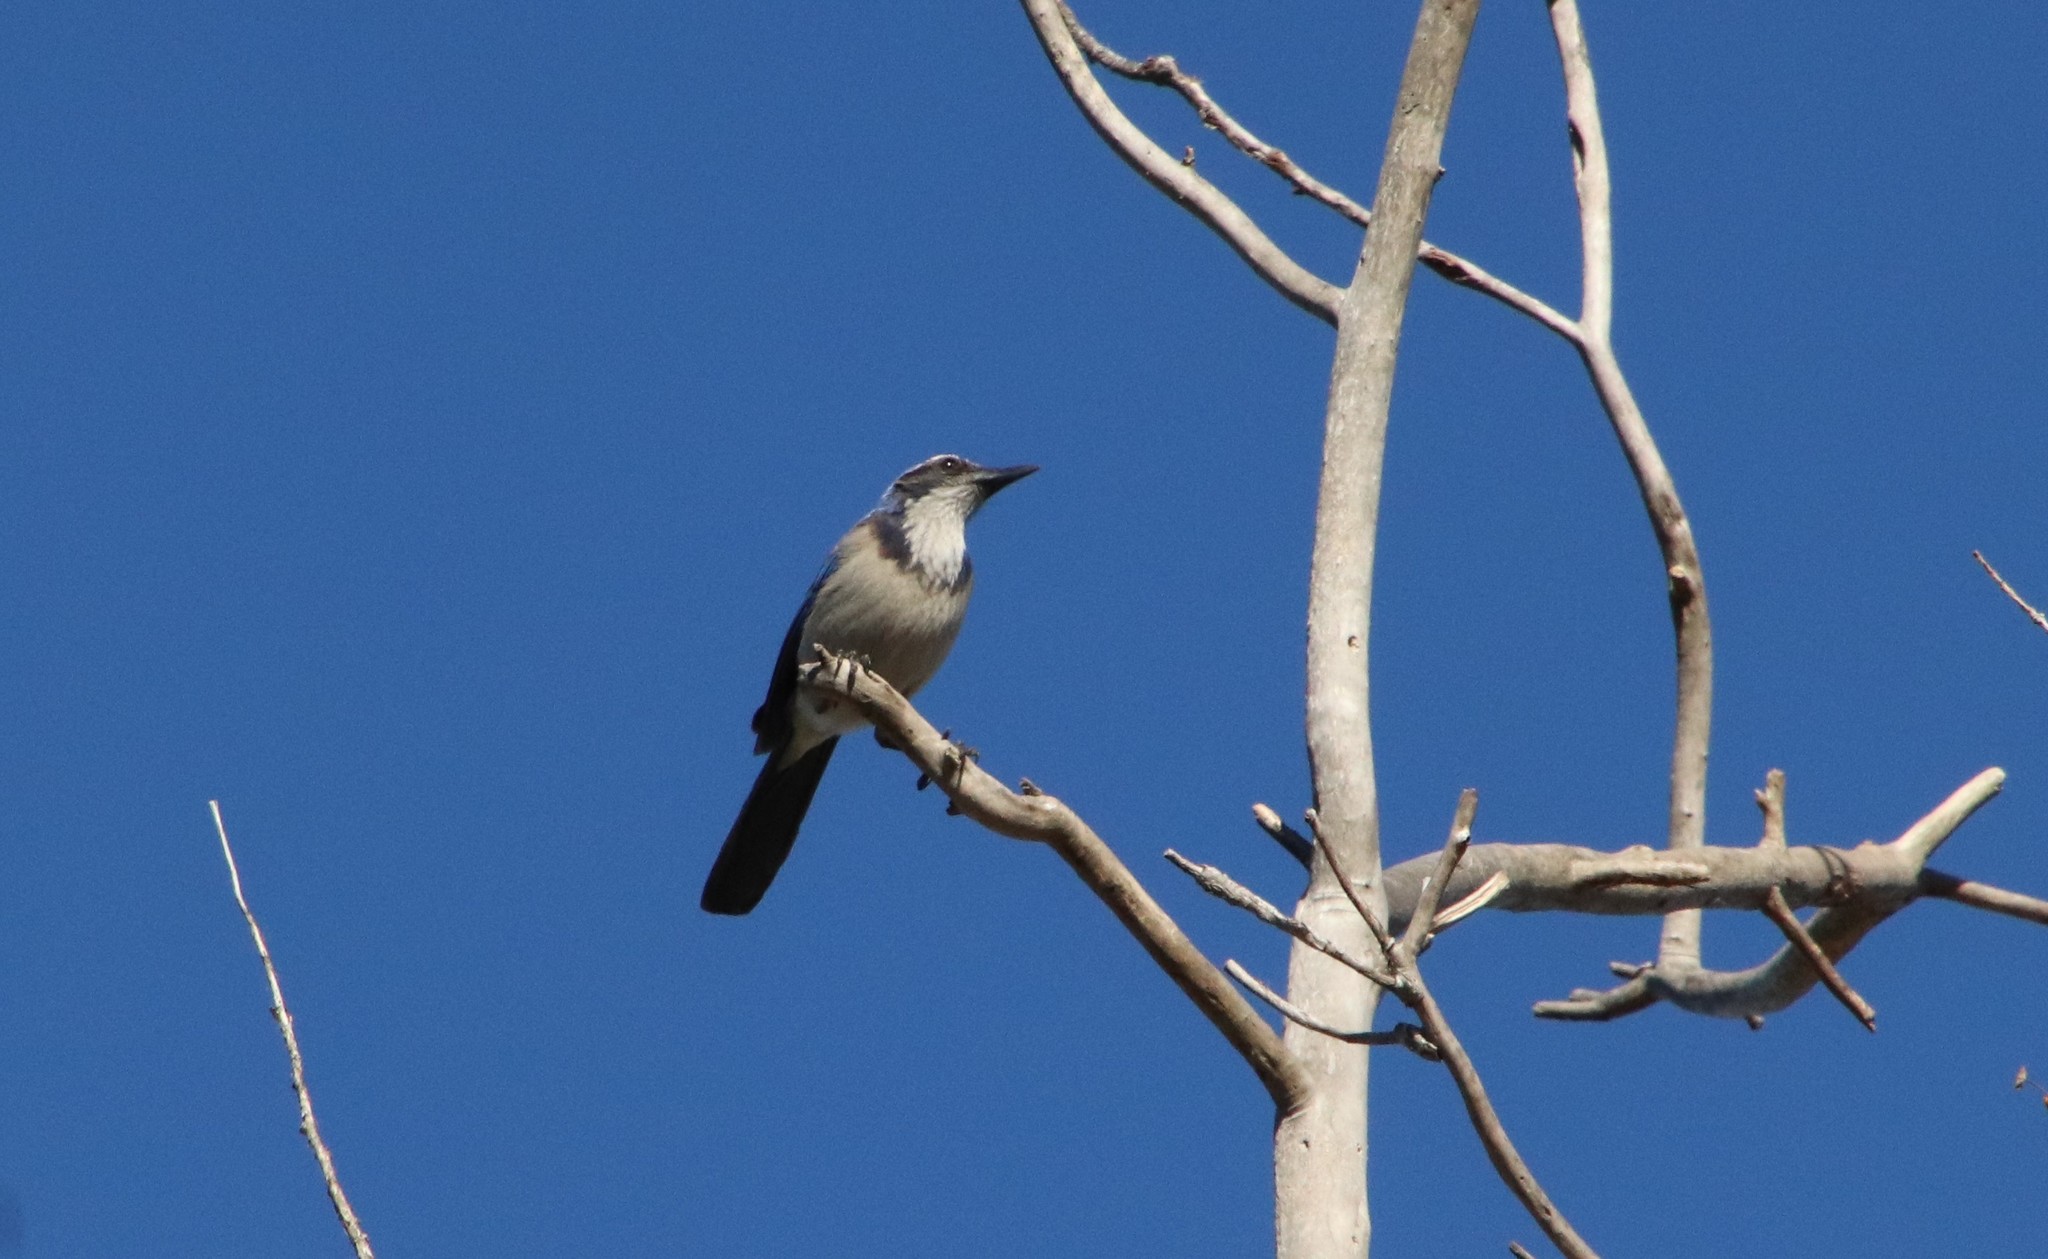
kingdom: Animalia
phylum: Chordata
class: Aves
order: Passeriformes
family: Corvidae
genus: Aphelocoma
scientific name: Aphelocoma californica
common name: California scrub-jay
